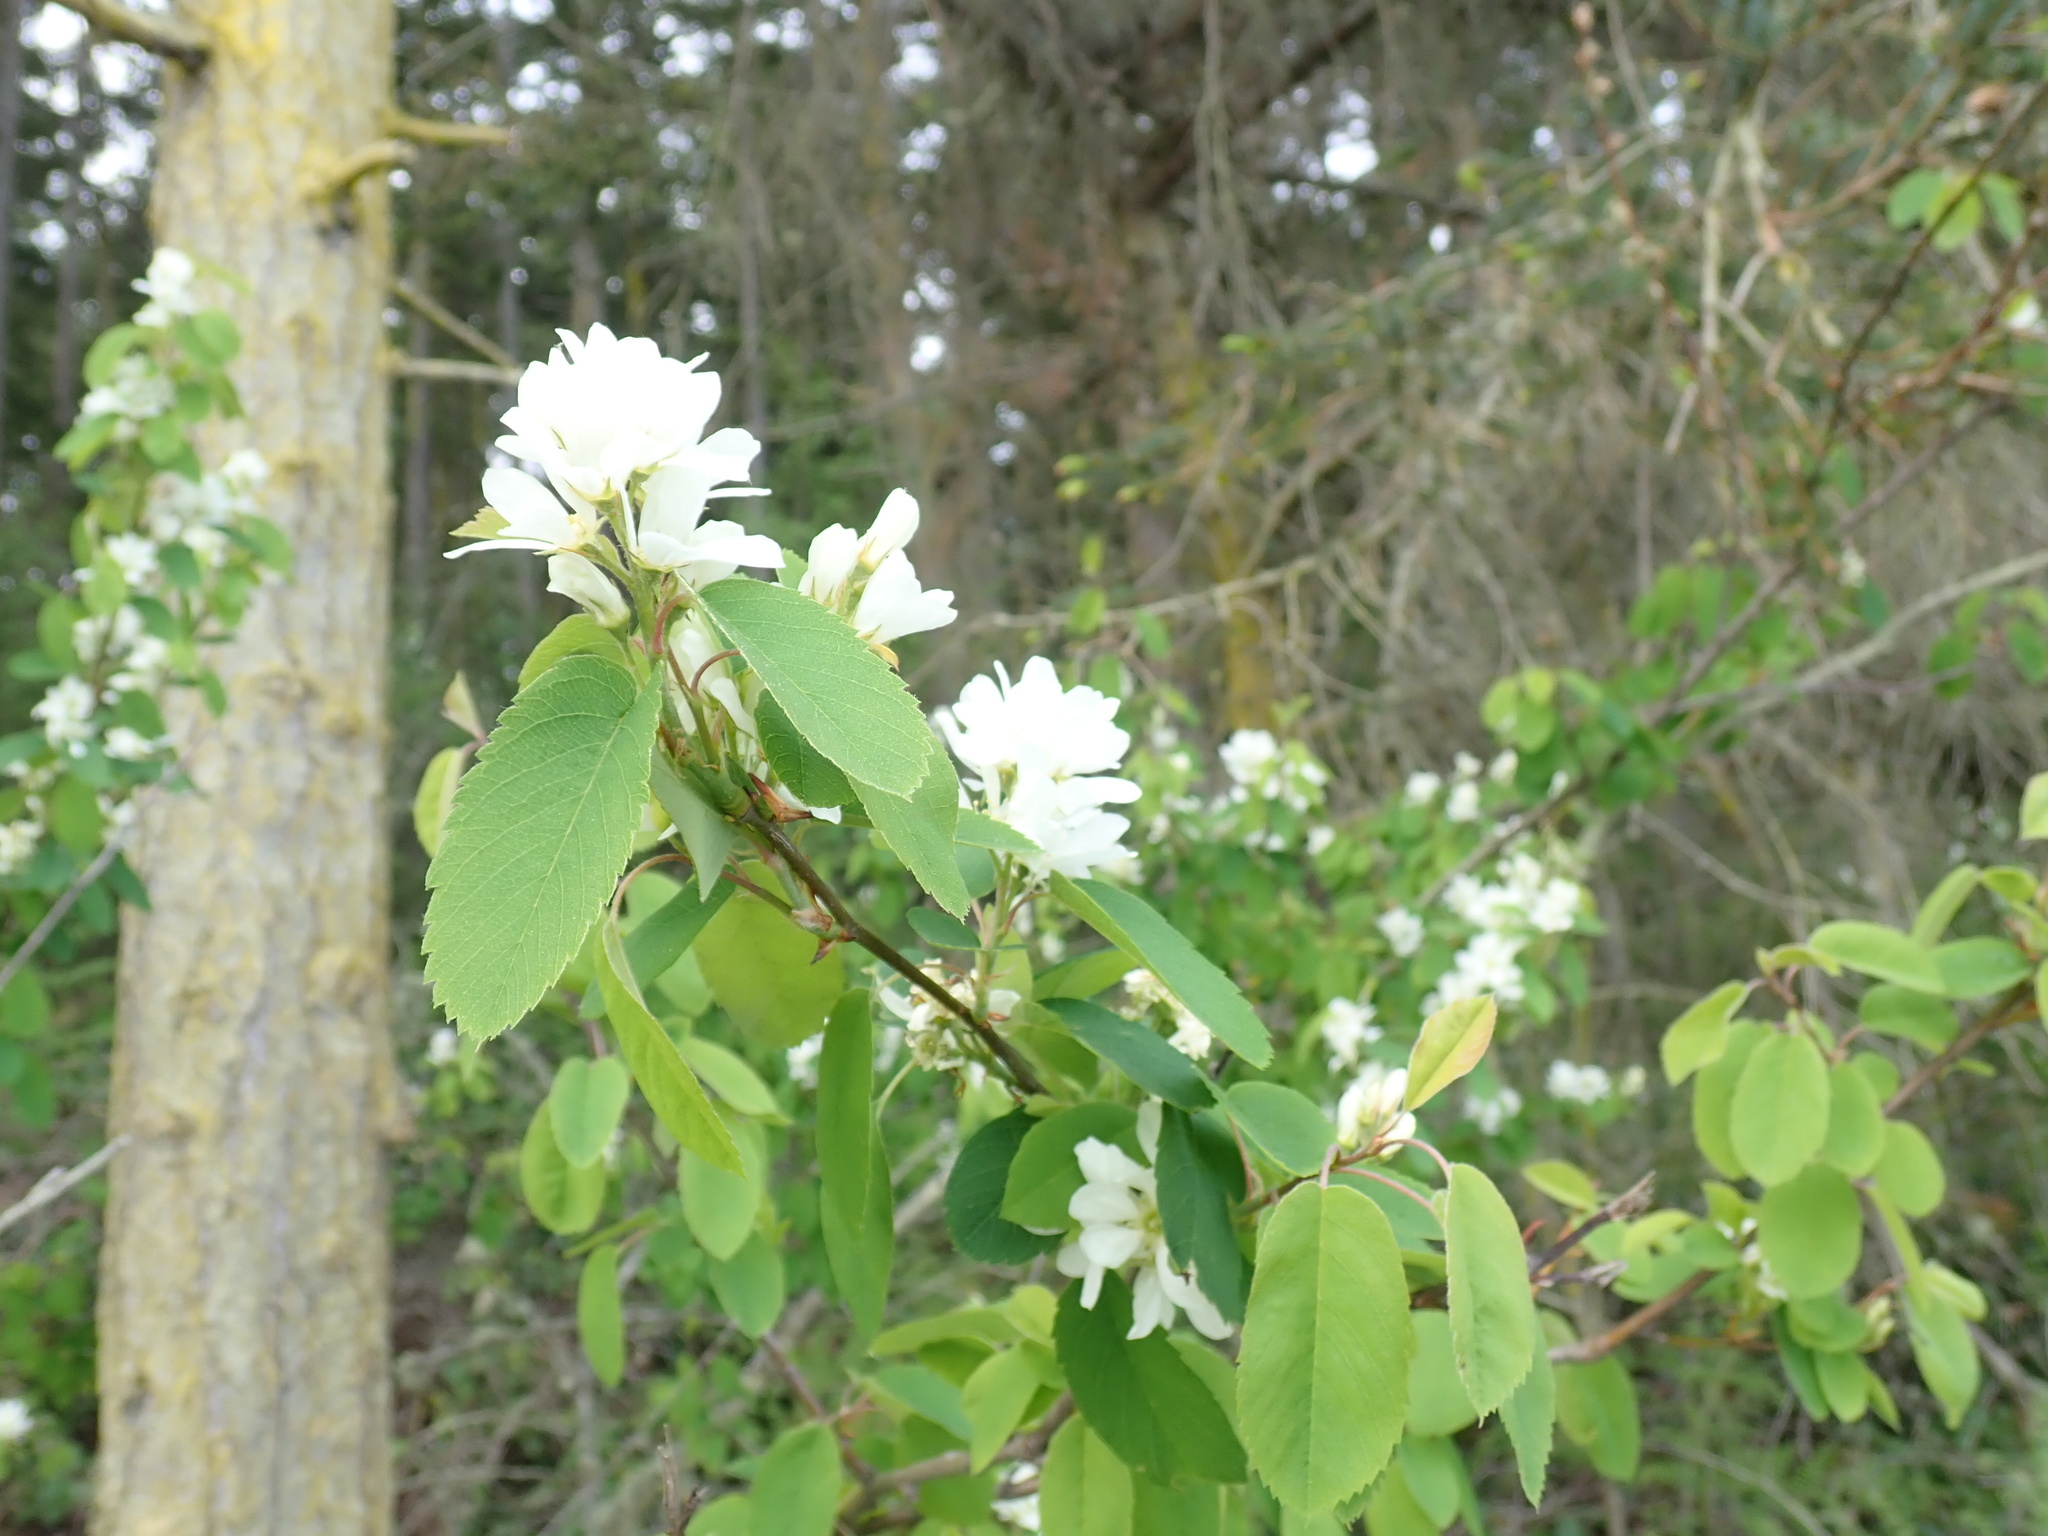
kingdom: Plantae
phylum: Tracheophyta
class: Magnoliopsida
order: Rosales
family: Rosaceae
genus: Amelanchier
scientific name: Amelanchier alnifolia
